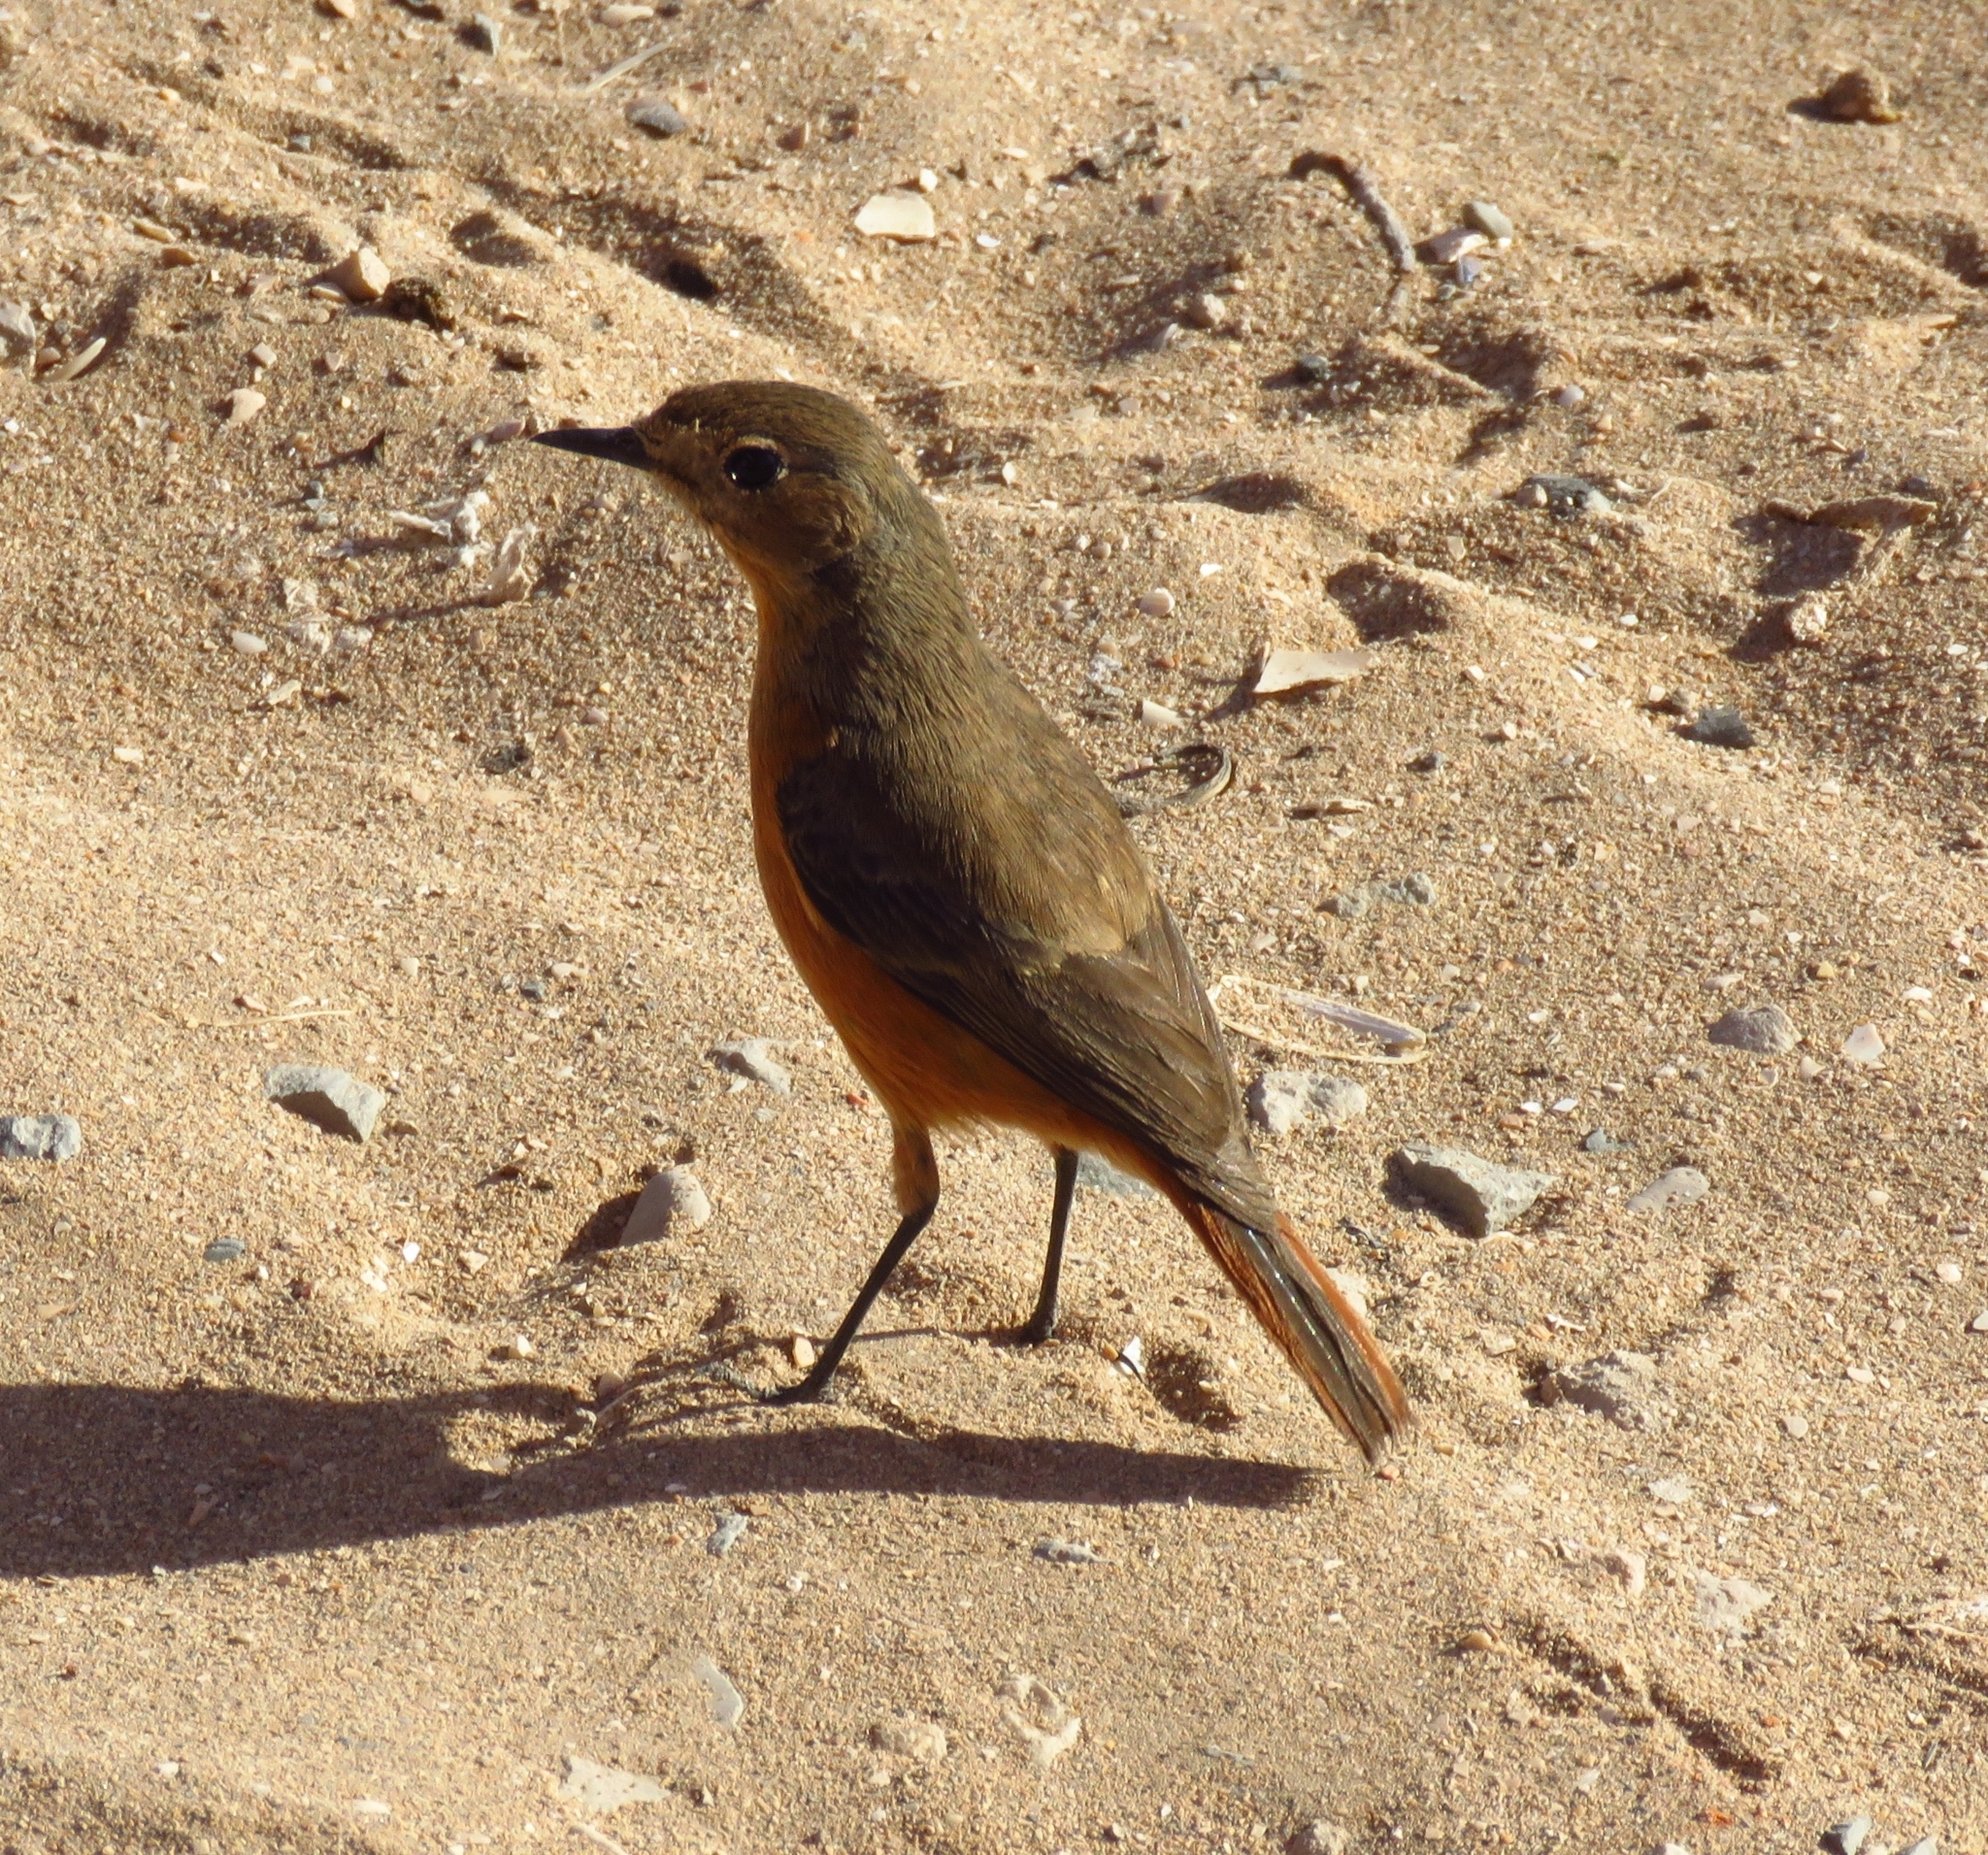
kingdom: Animalia
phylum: Chordata
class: Aves
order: Passeriformes
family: Muscicapidae
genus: Phoenicurus
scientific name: Phoenicurus moussieri
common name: Moussier's redstart
